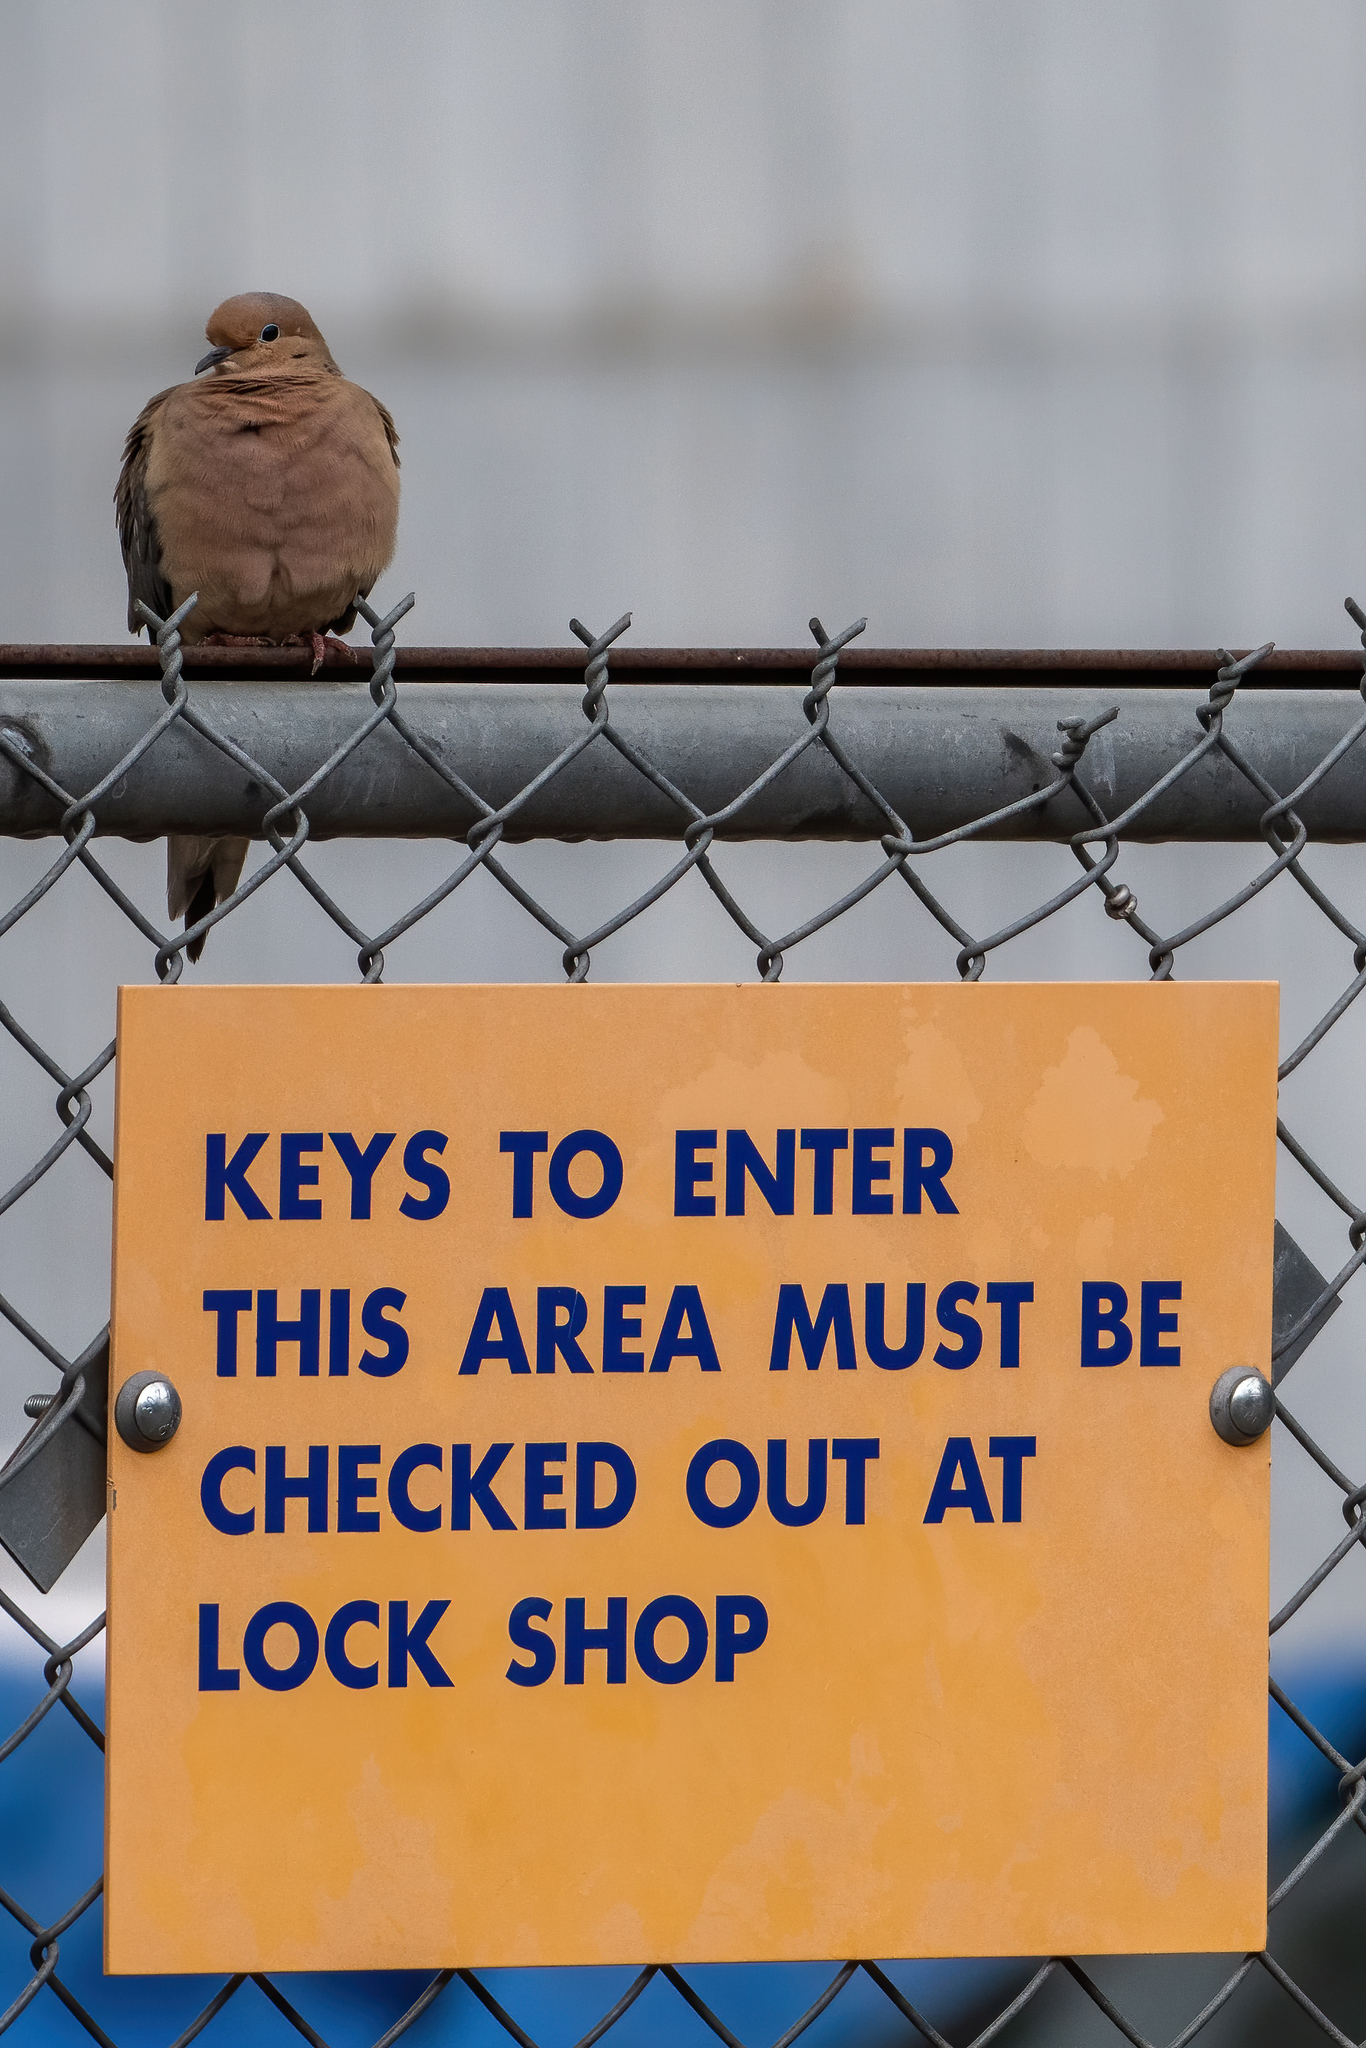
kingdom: Animalia
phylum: Chordata
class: Aves
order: Columbiformes
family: Columbidae
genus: Zenaida
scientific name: Zenaida macroura
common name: Mourning dove
